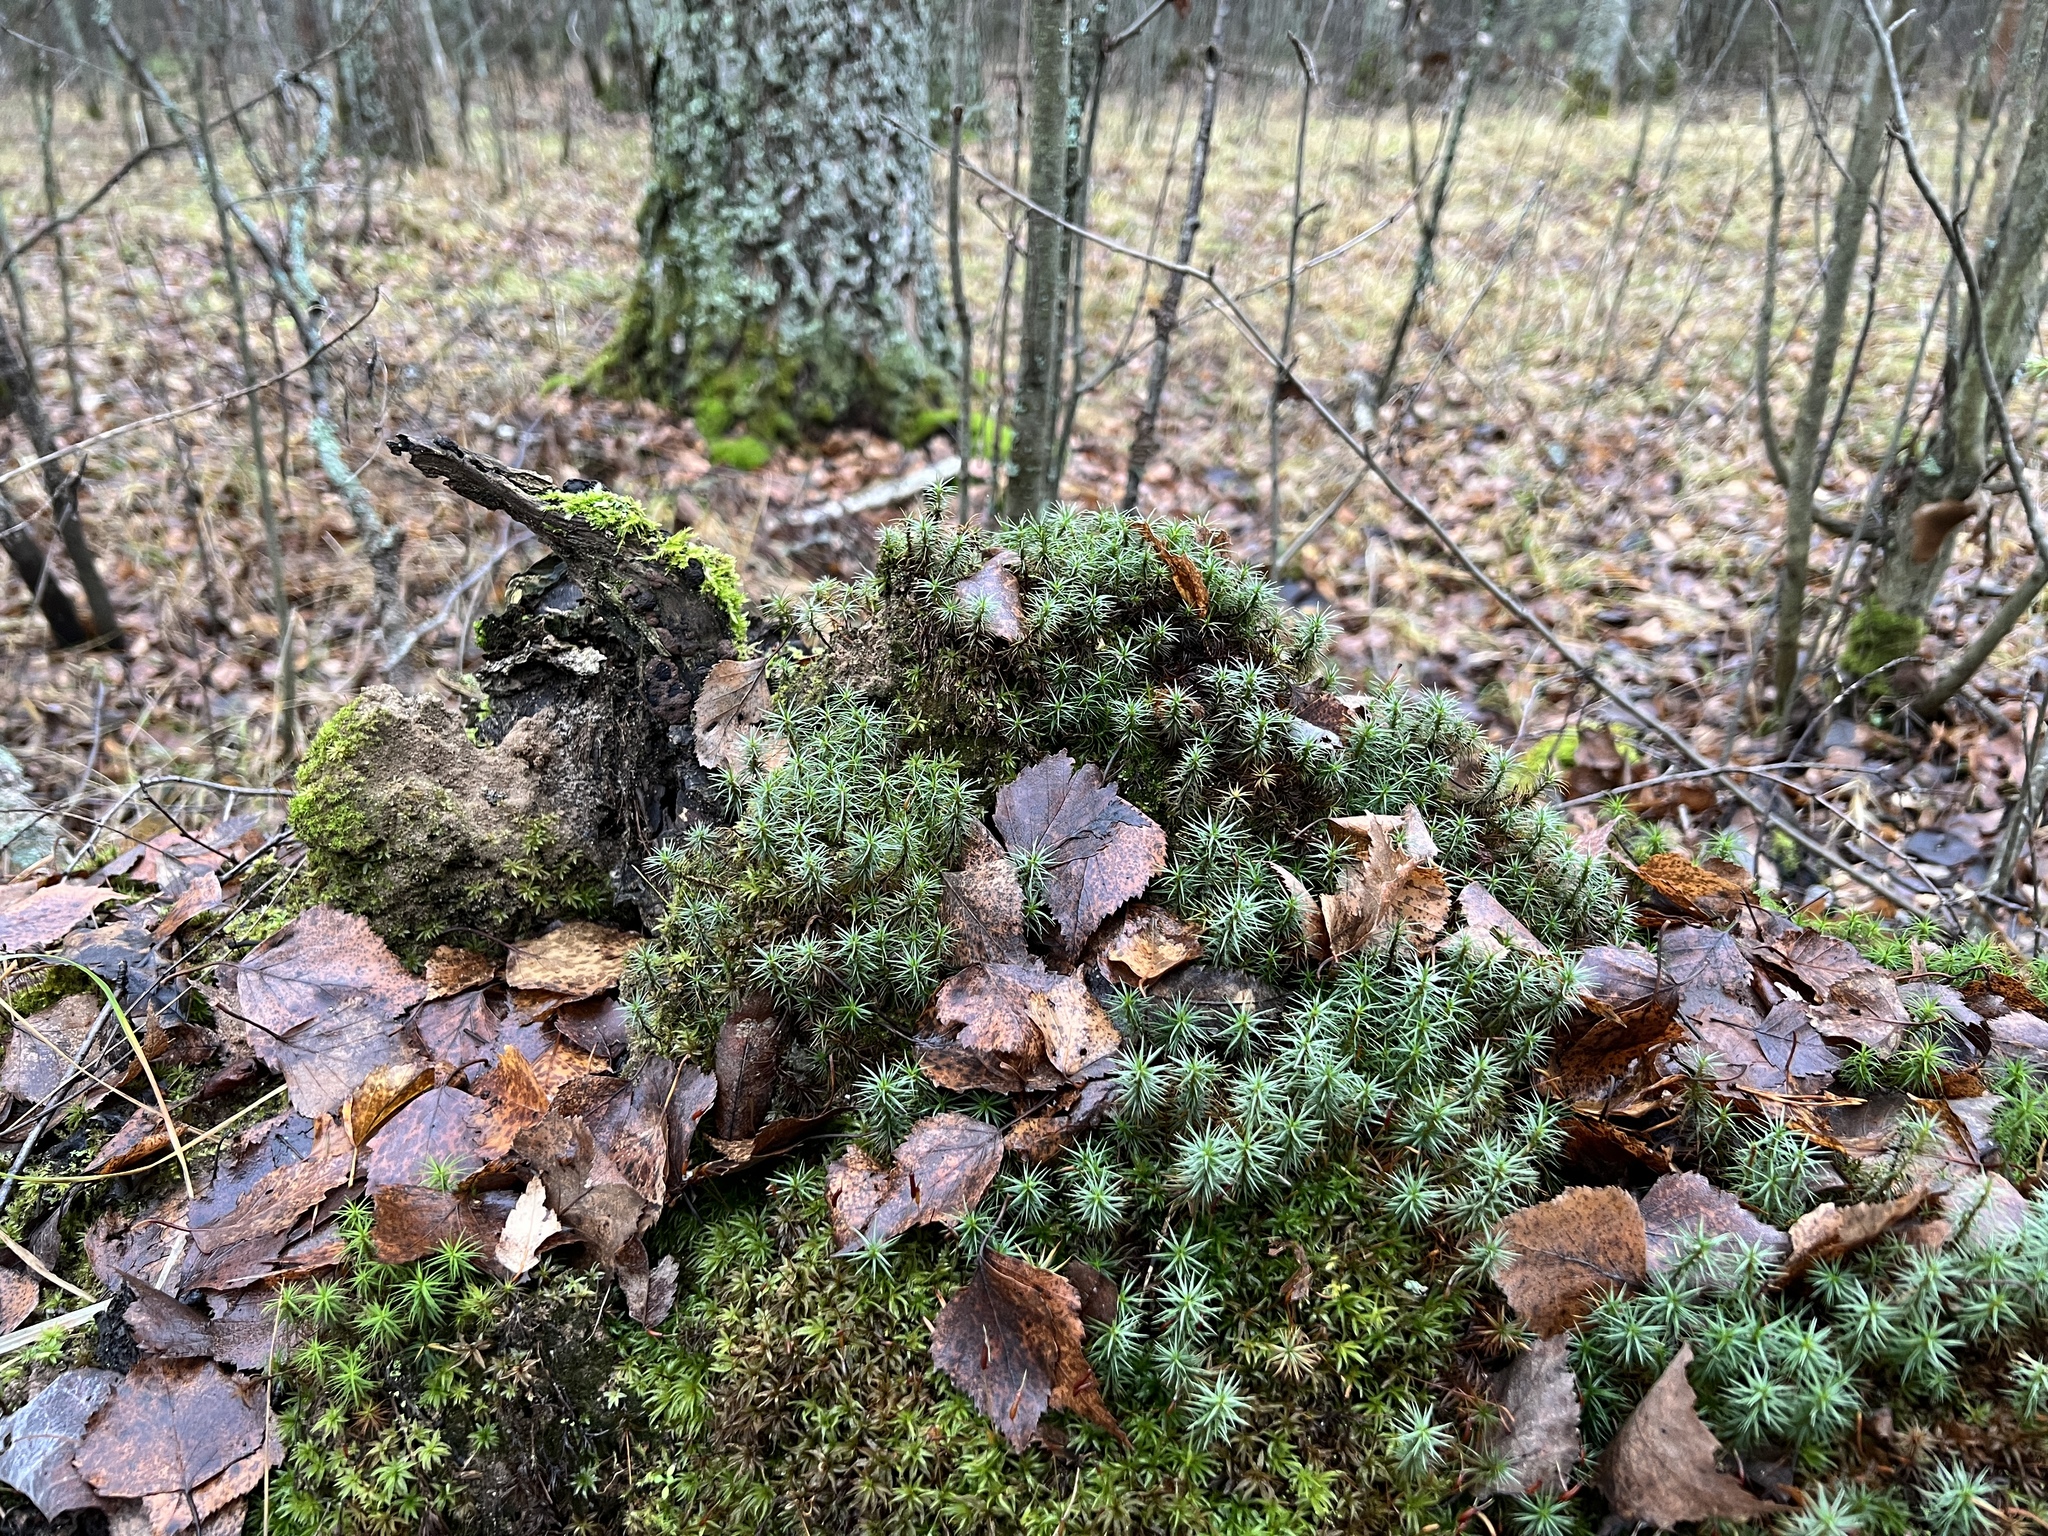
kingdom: Plantae
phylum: Bryophyta
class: Polytrichopsida
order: Polytrichales
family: Polytrichaceae
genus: Polytrichum
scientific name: Polytrichum juniperinum
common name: Juniper haircap moss
